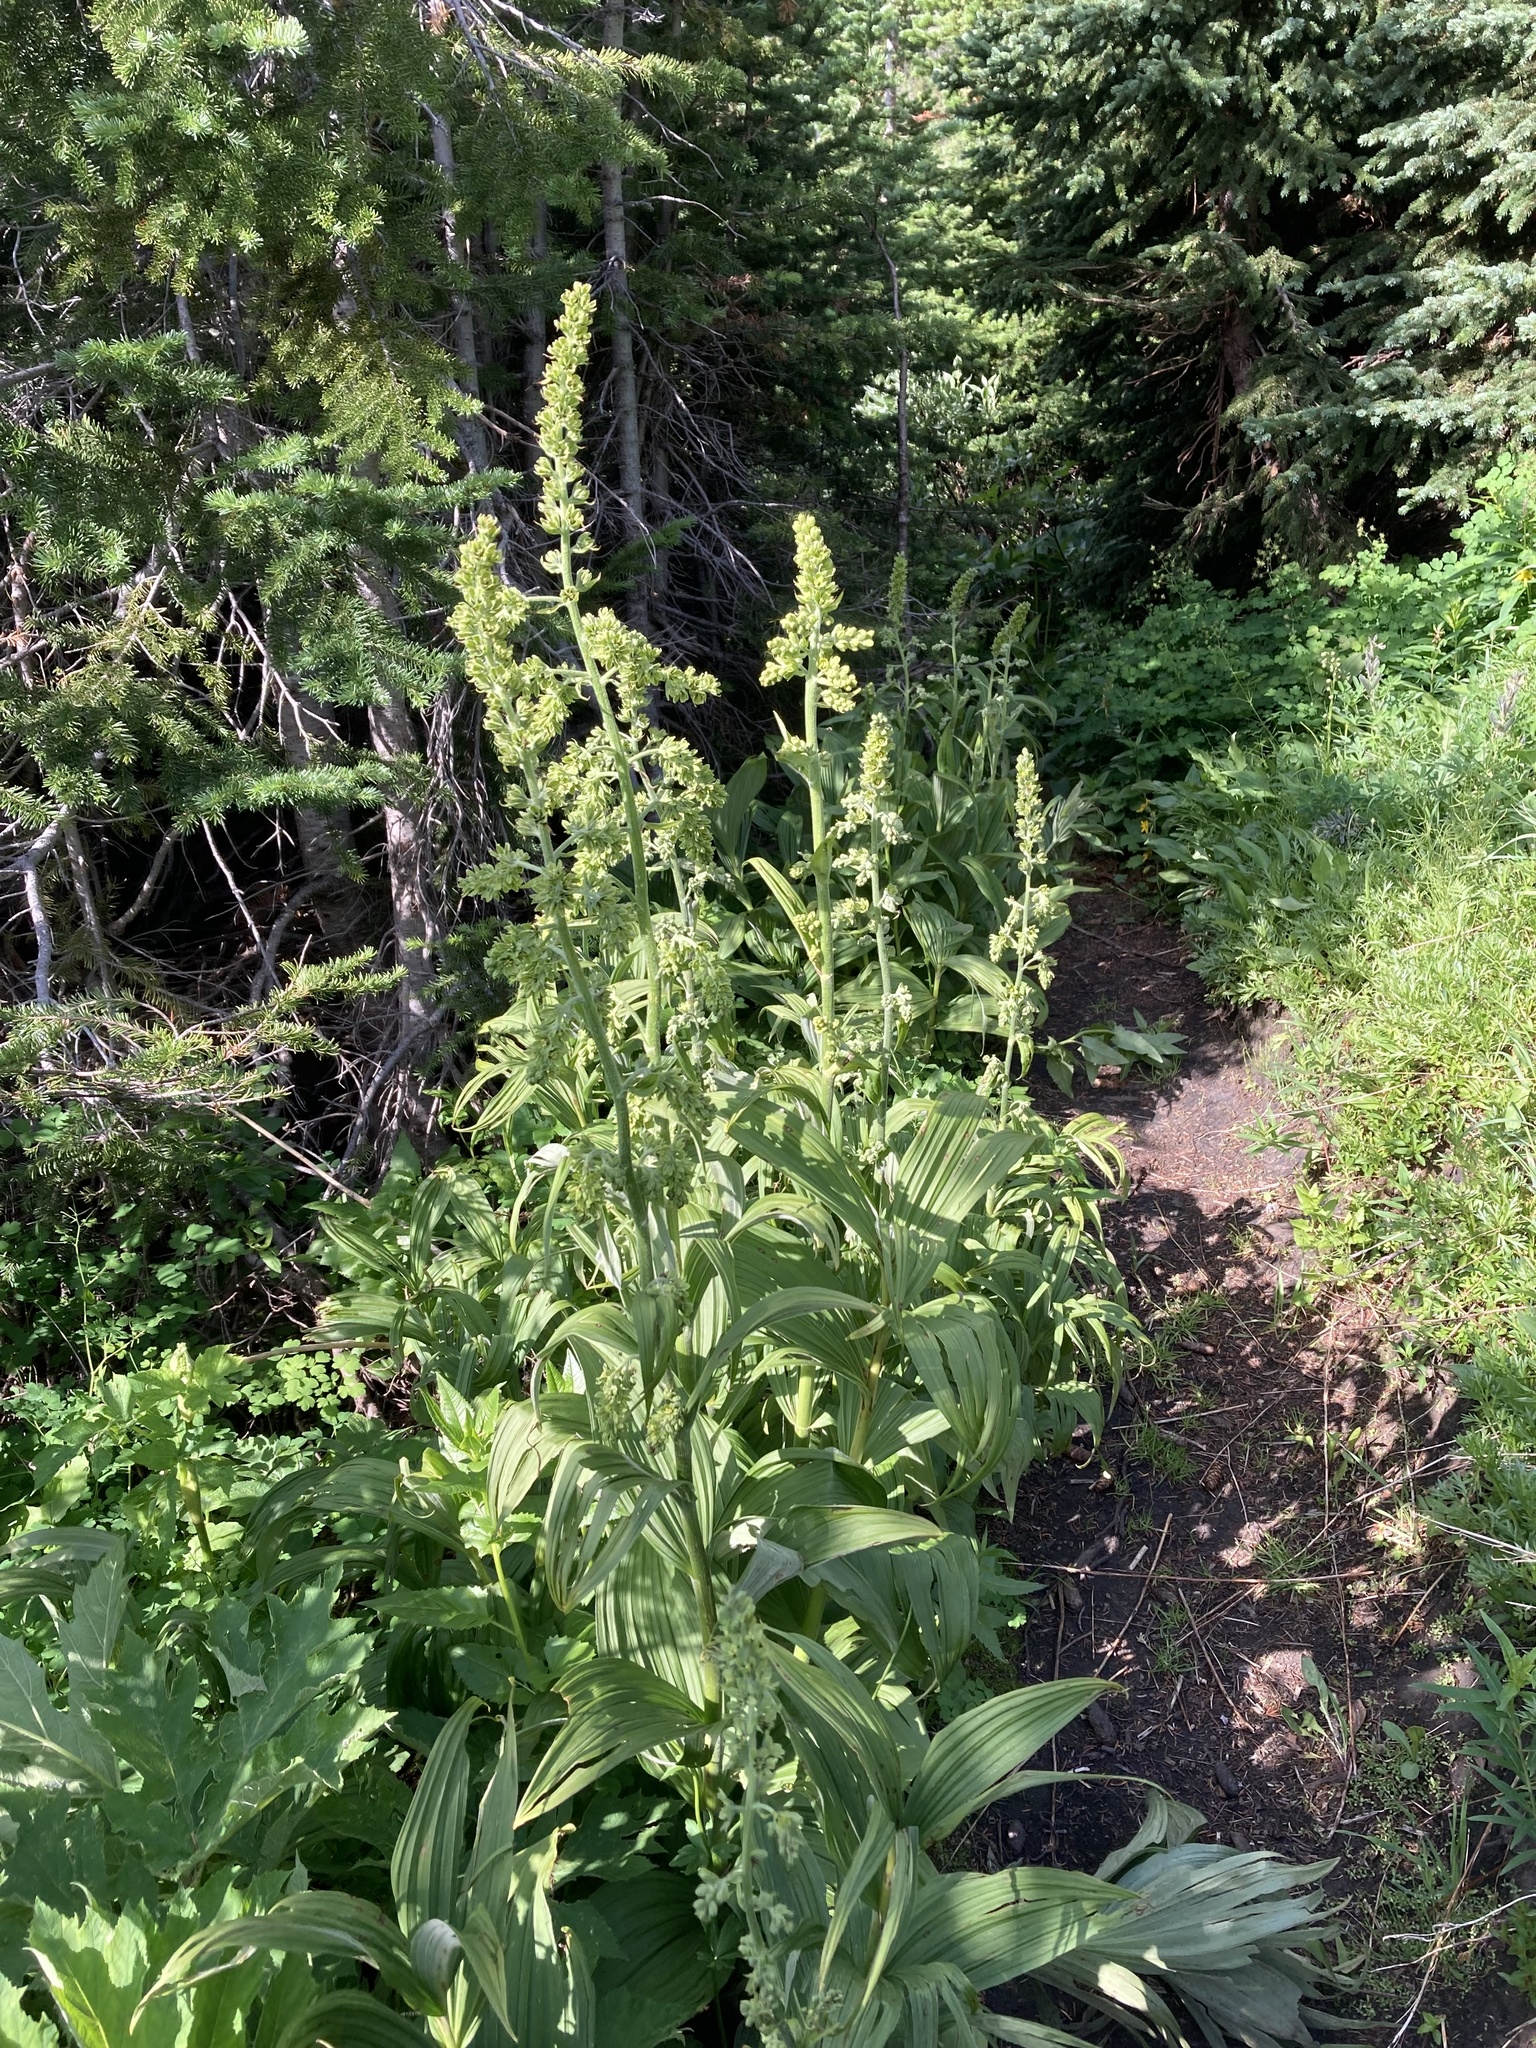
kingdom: Plantae
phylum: Tracheophyta
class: Liliopsida
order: Liliales
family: Melanthiaceae
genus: Veratrum
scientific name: Veratrum viride
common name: American false hellebore
